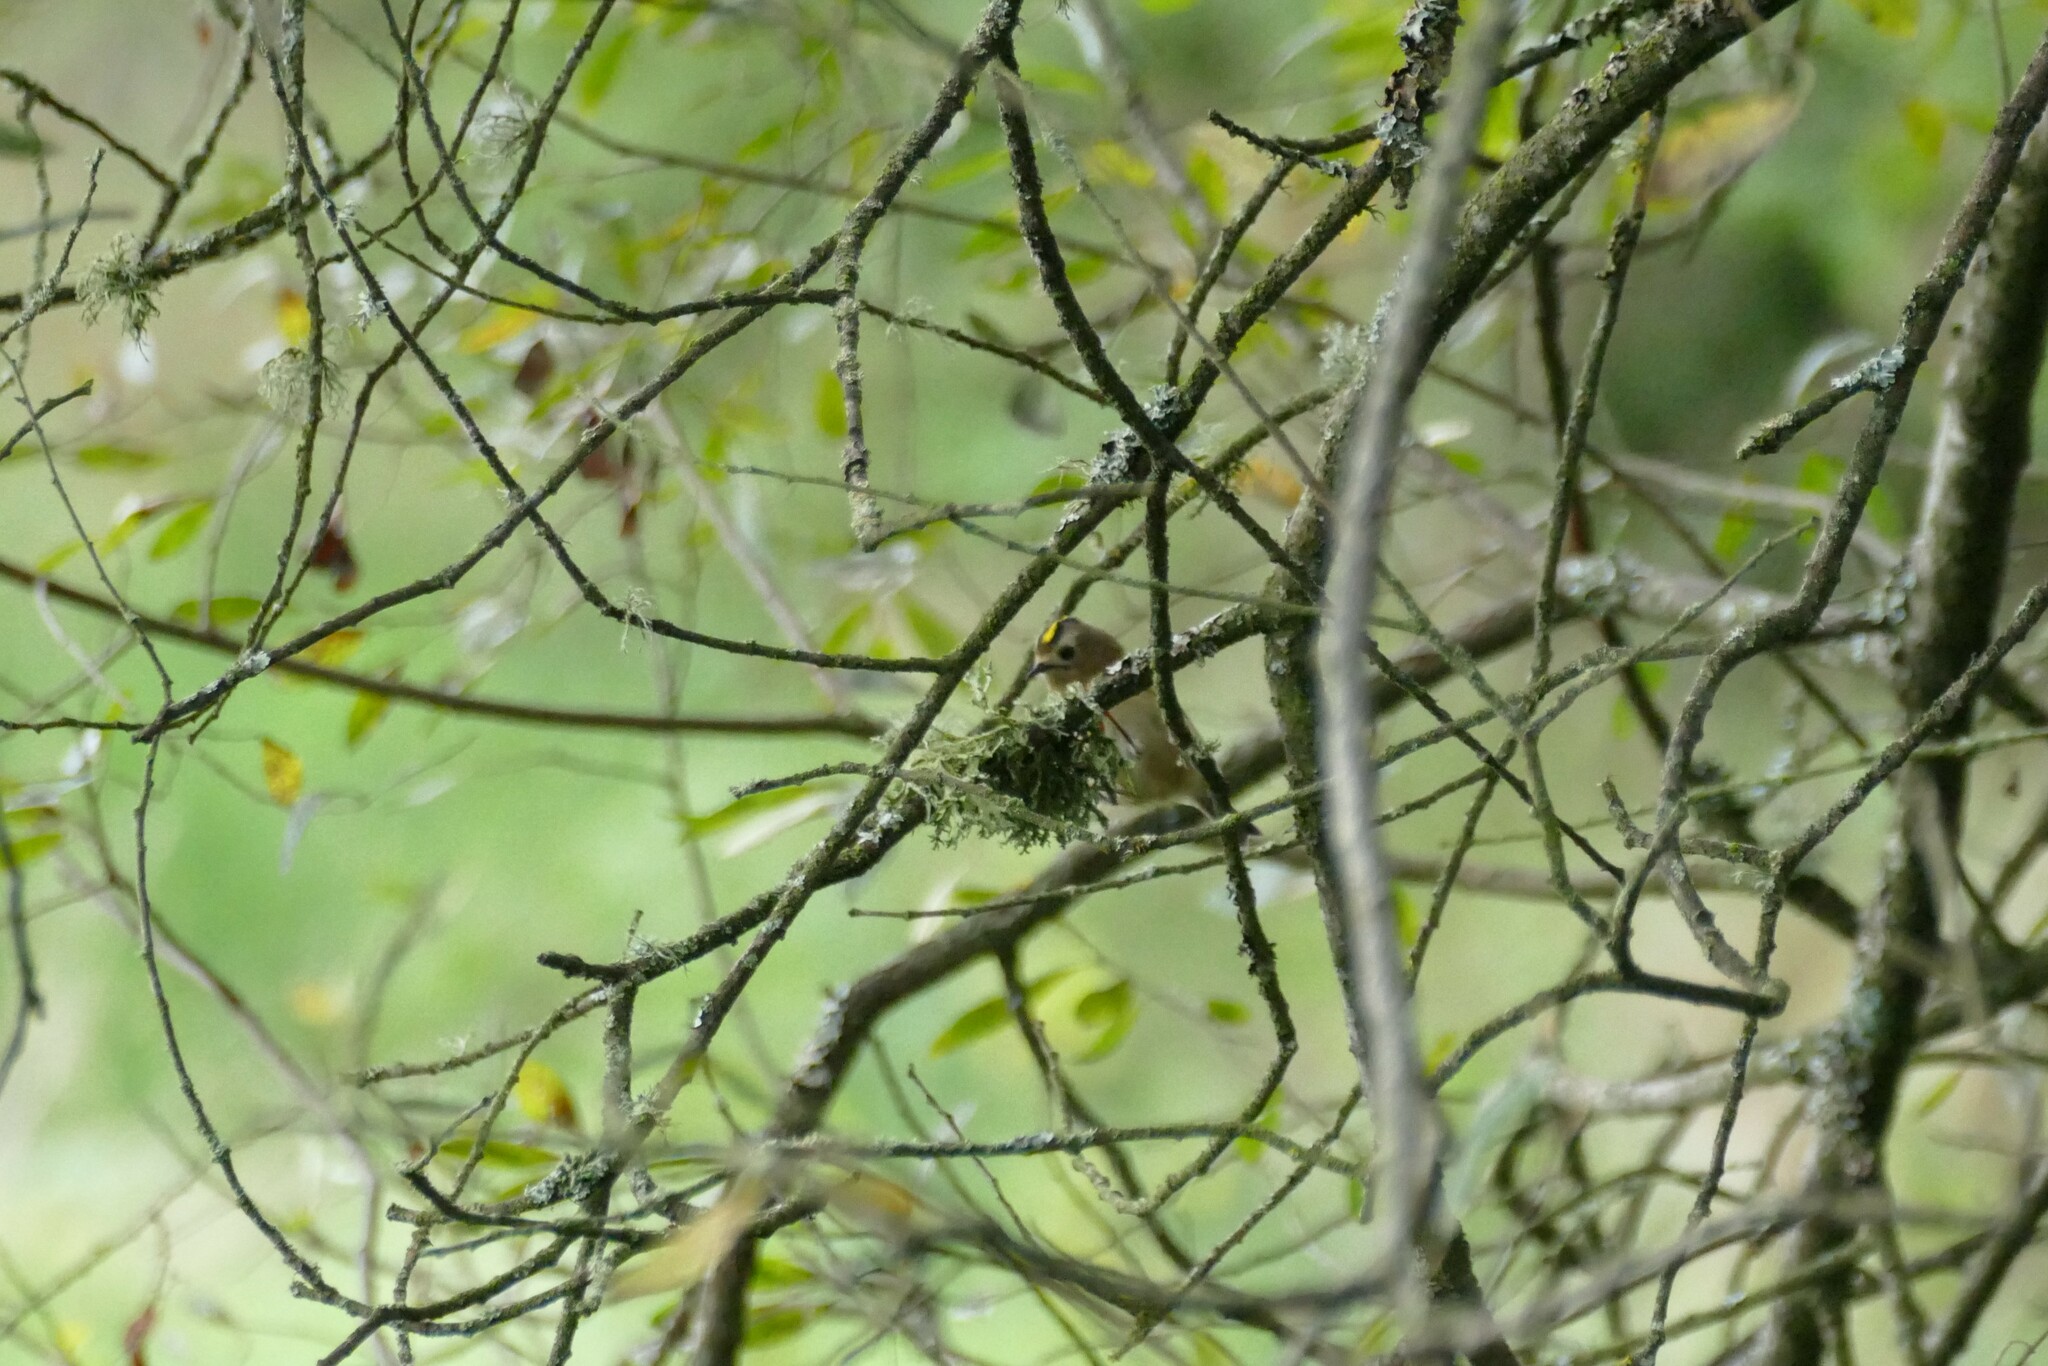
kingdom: Animalia
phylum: Chordata
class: Aves
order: Passeriformes
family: Regulidae
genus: Regulus
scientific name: Regulus regulus
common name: Goldcrest
